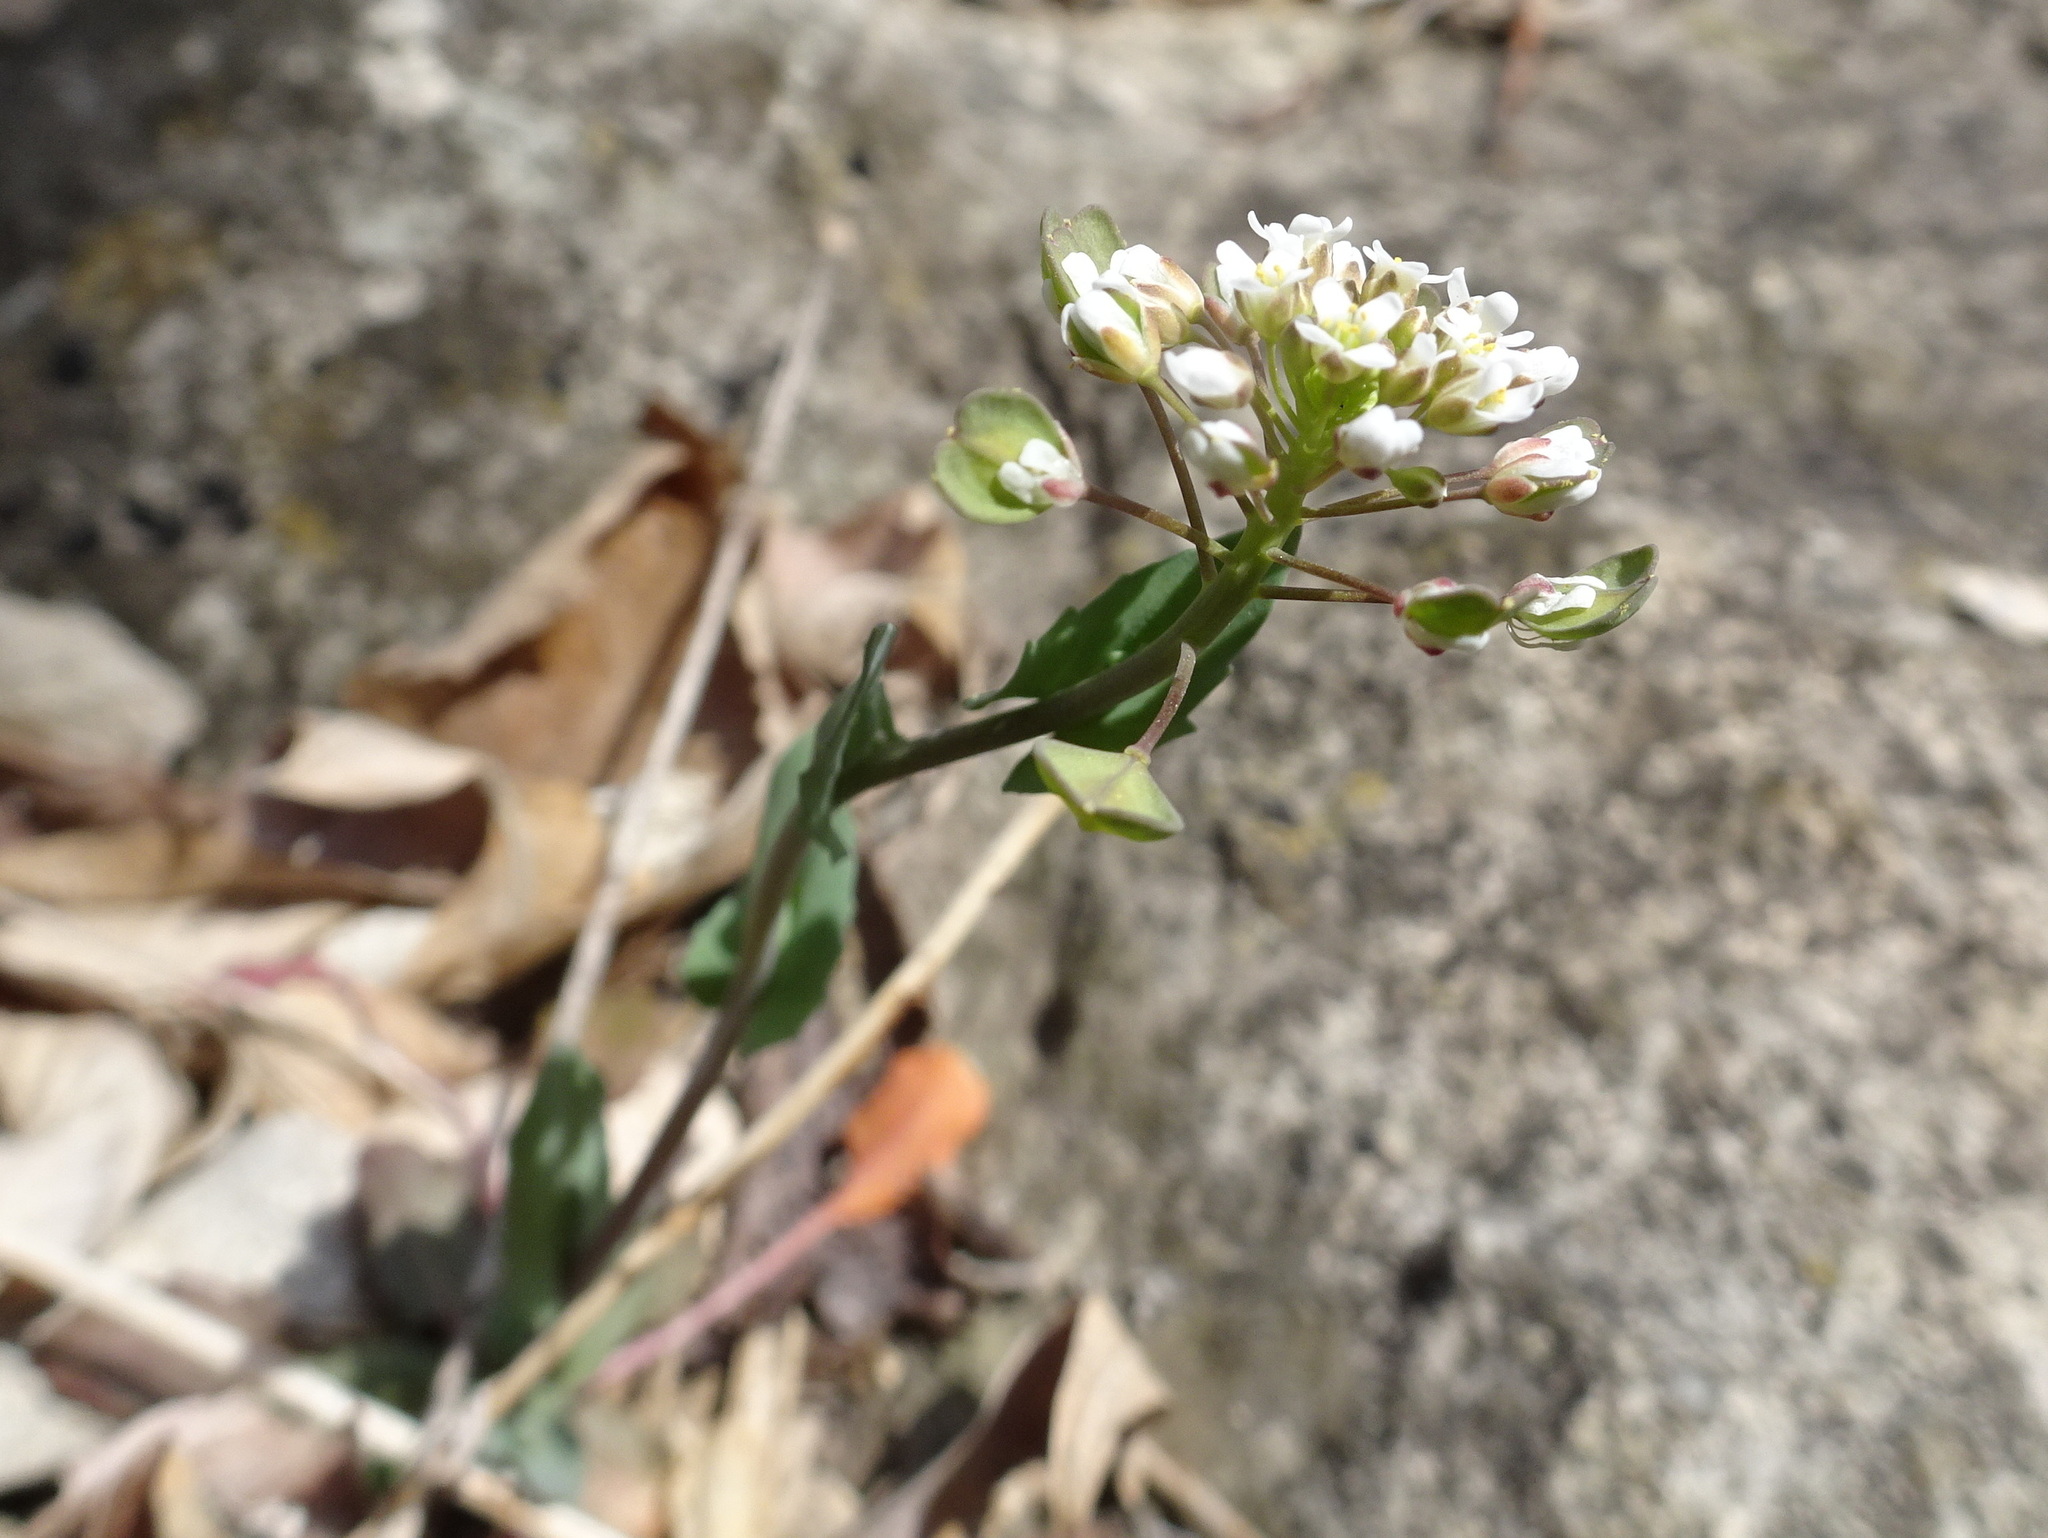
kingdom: Plantae
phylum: Tracheophyta
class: Magnoliopsida
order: Brassicales
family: Brassicaceae
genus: Noccaea
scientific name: Noccaea perfoliata
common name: Perfoliate pennycress
